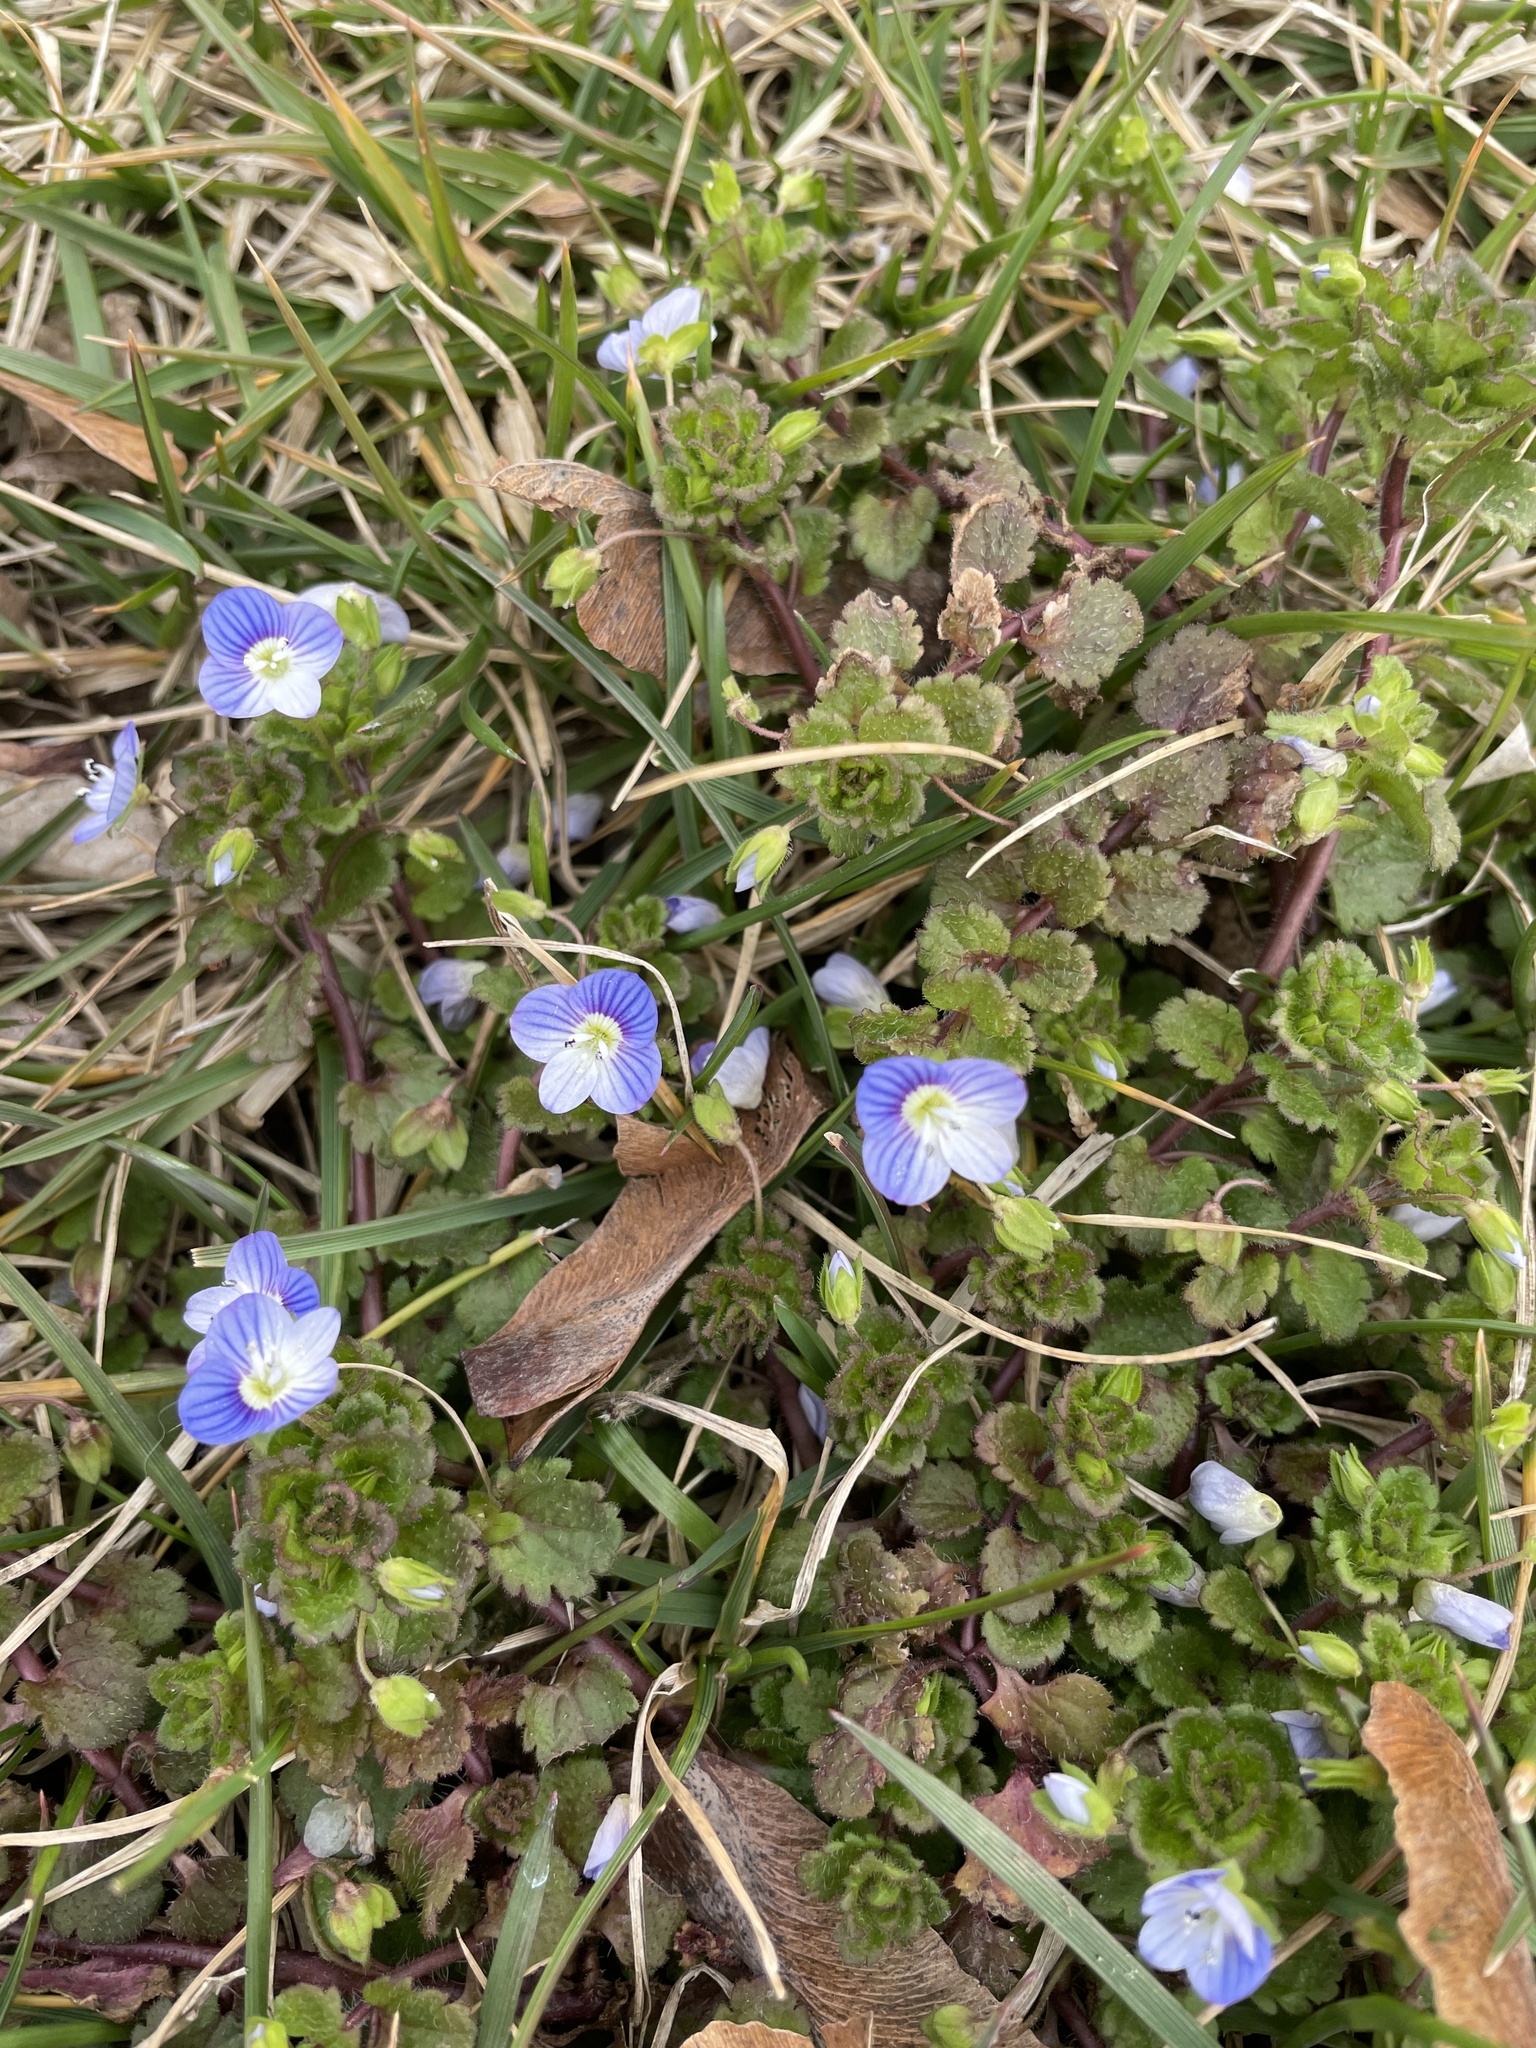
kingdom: Plantae
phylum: Tracheophyta
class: Magnoliopsida
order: Lamiales
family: Plantaginaceae
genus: Veronica
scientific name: Veronica persica
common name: Common field-speedwell
